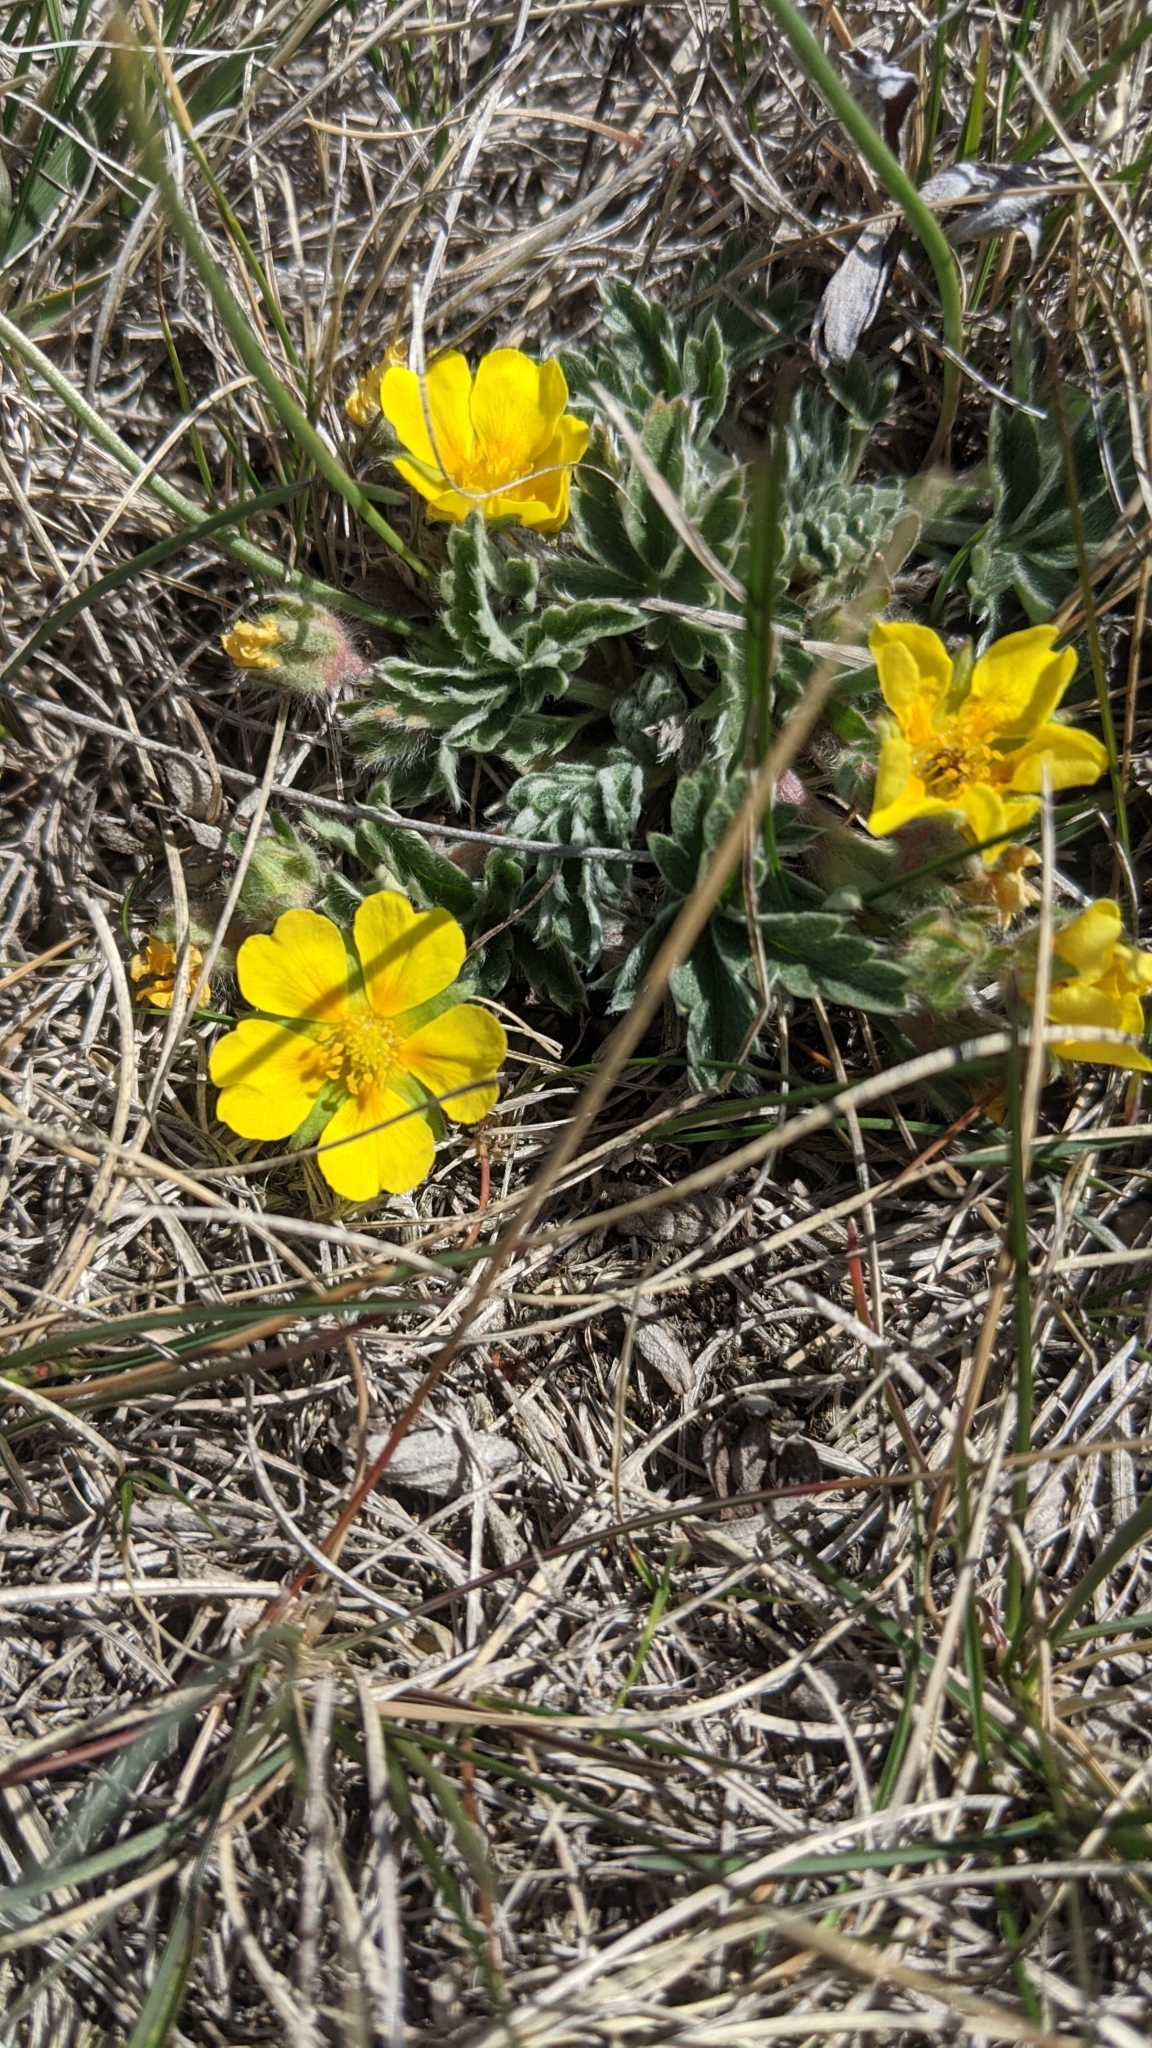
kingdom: Plantae
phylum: Tracheophyta
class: Magnoliopsida
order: Rosales
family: Rosaceae
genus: Potentilla
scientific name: Potentilla concinna
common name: Early cinquefoil
